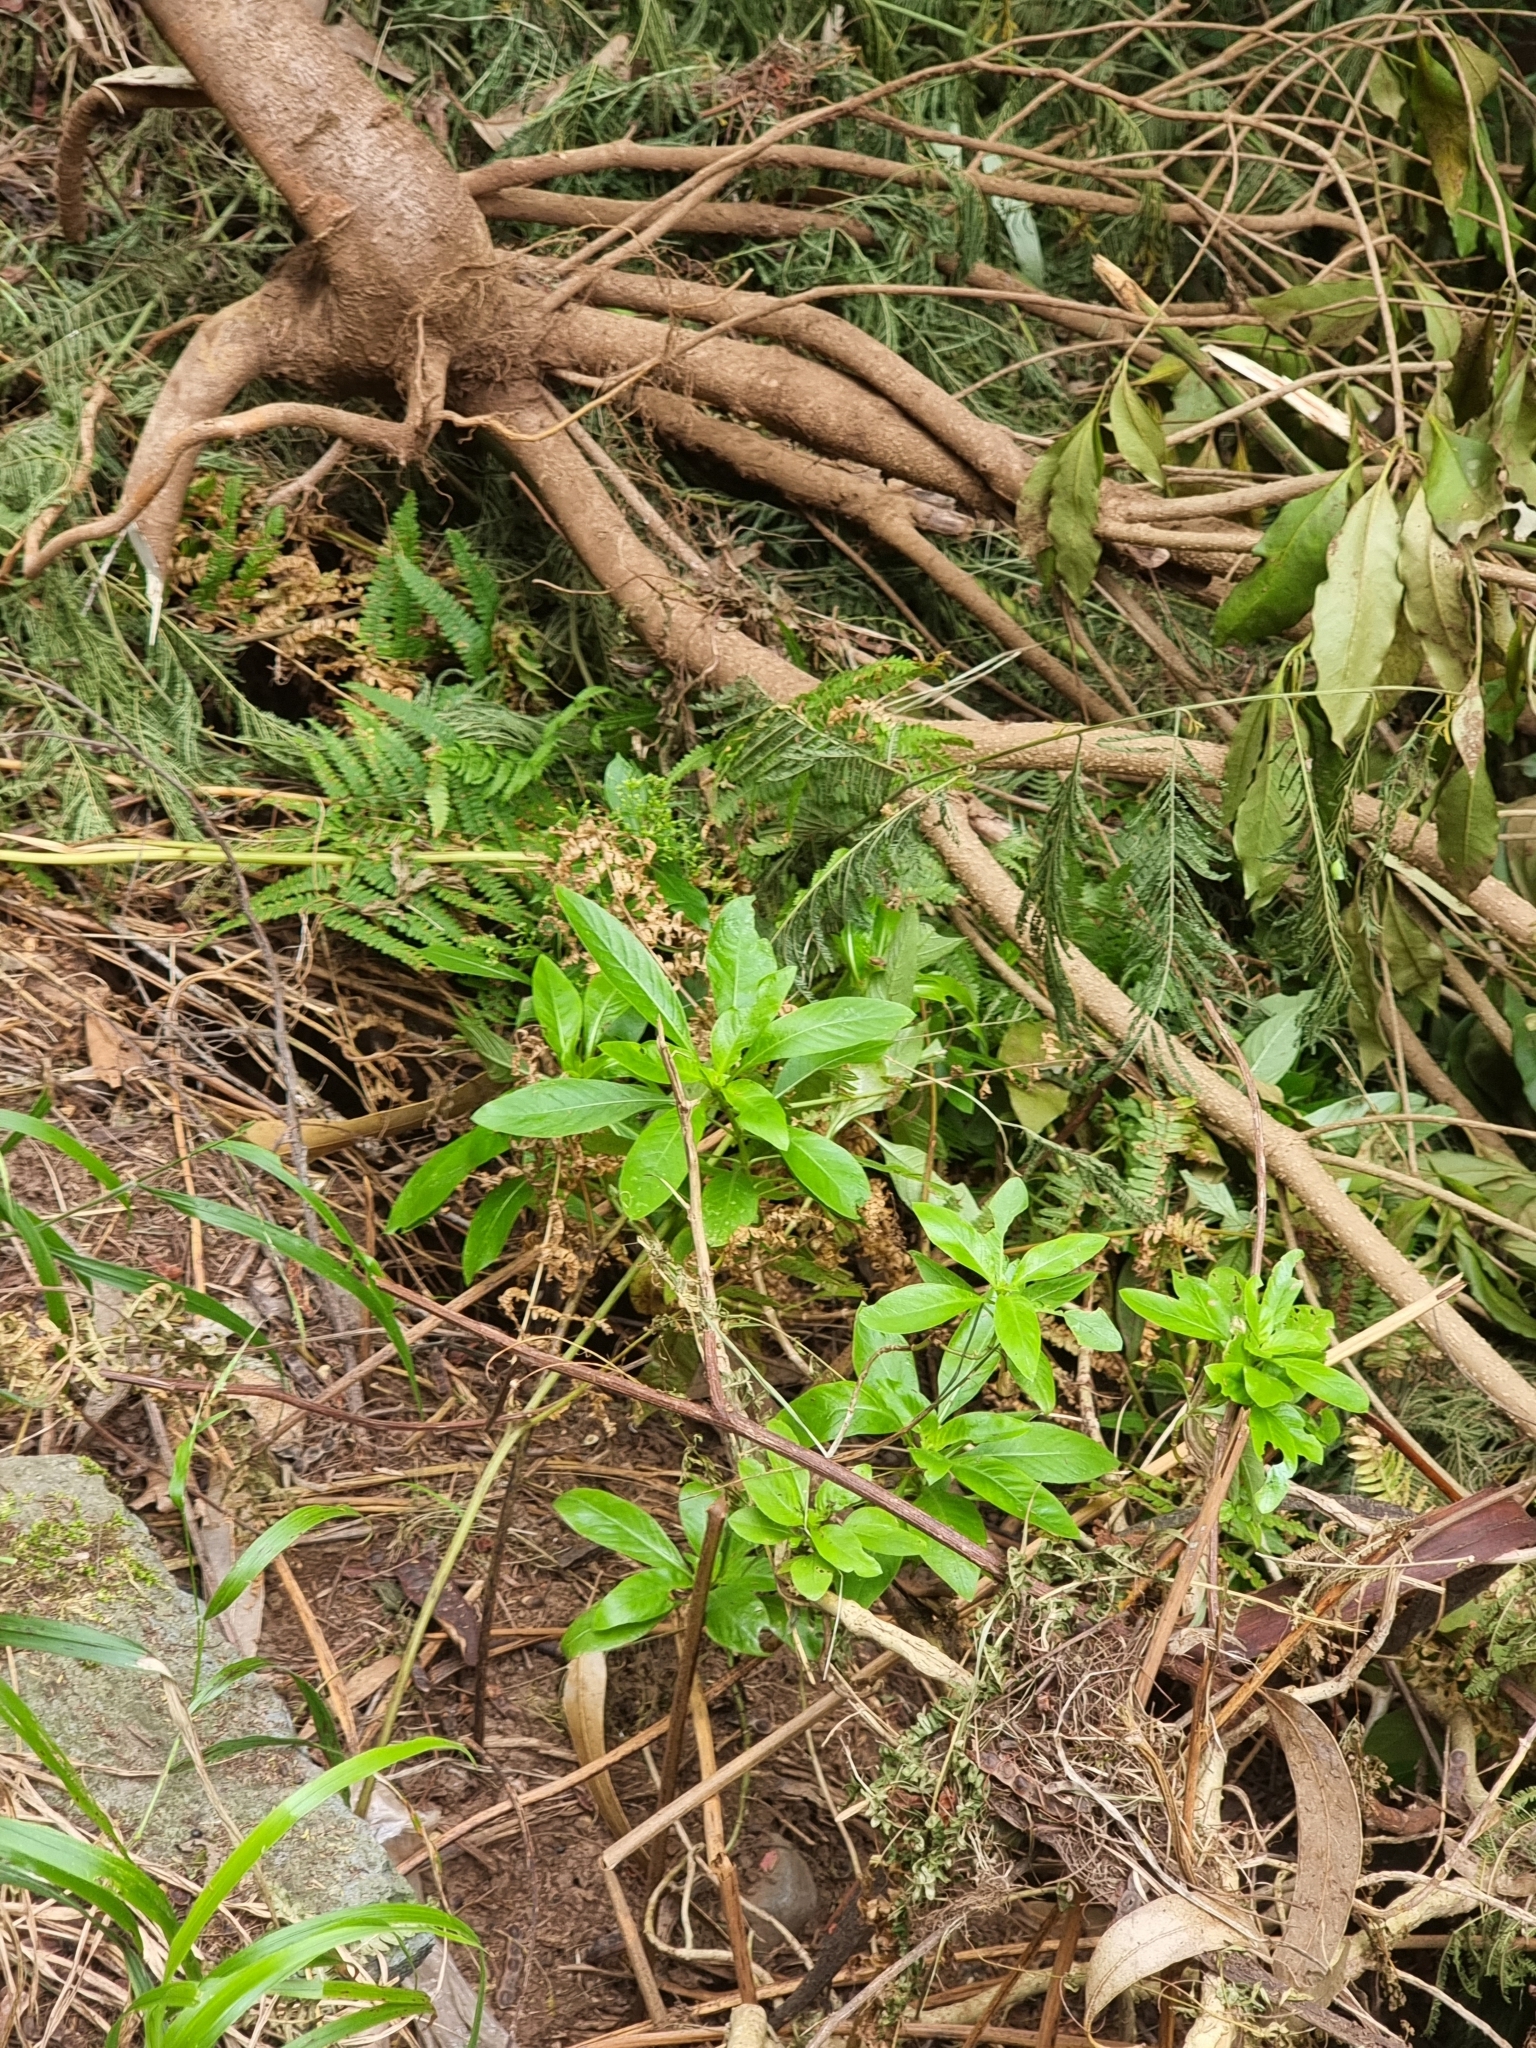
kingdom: Plantae
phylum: Tracheophyta
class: Magnoliopsida
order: Gentianales
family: Rubiaceae
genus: Phyllis
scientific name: Phyllis nobla
